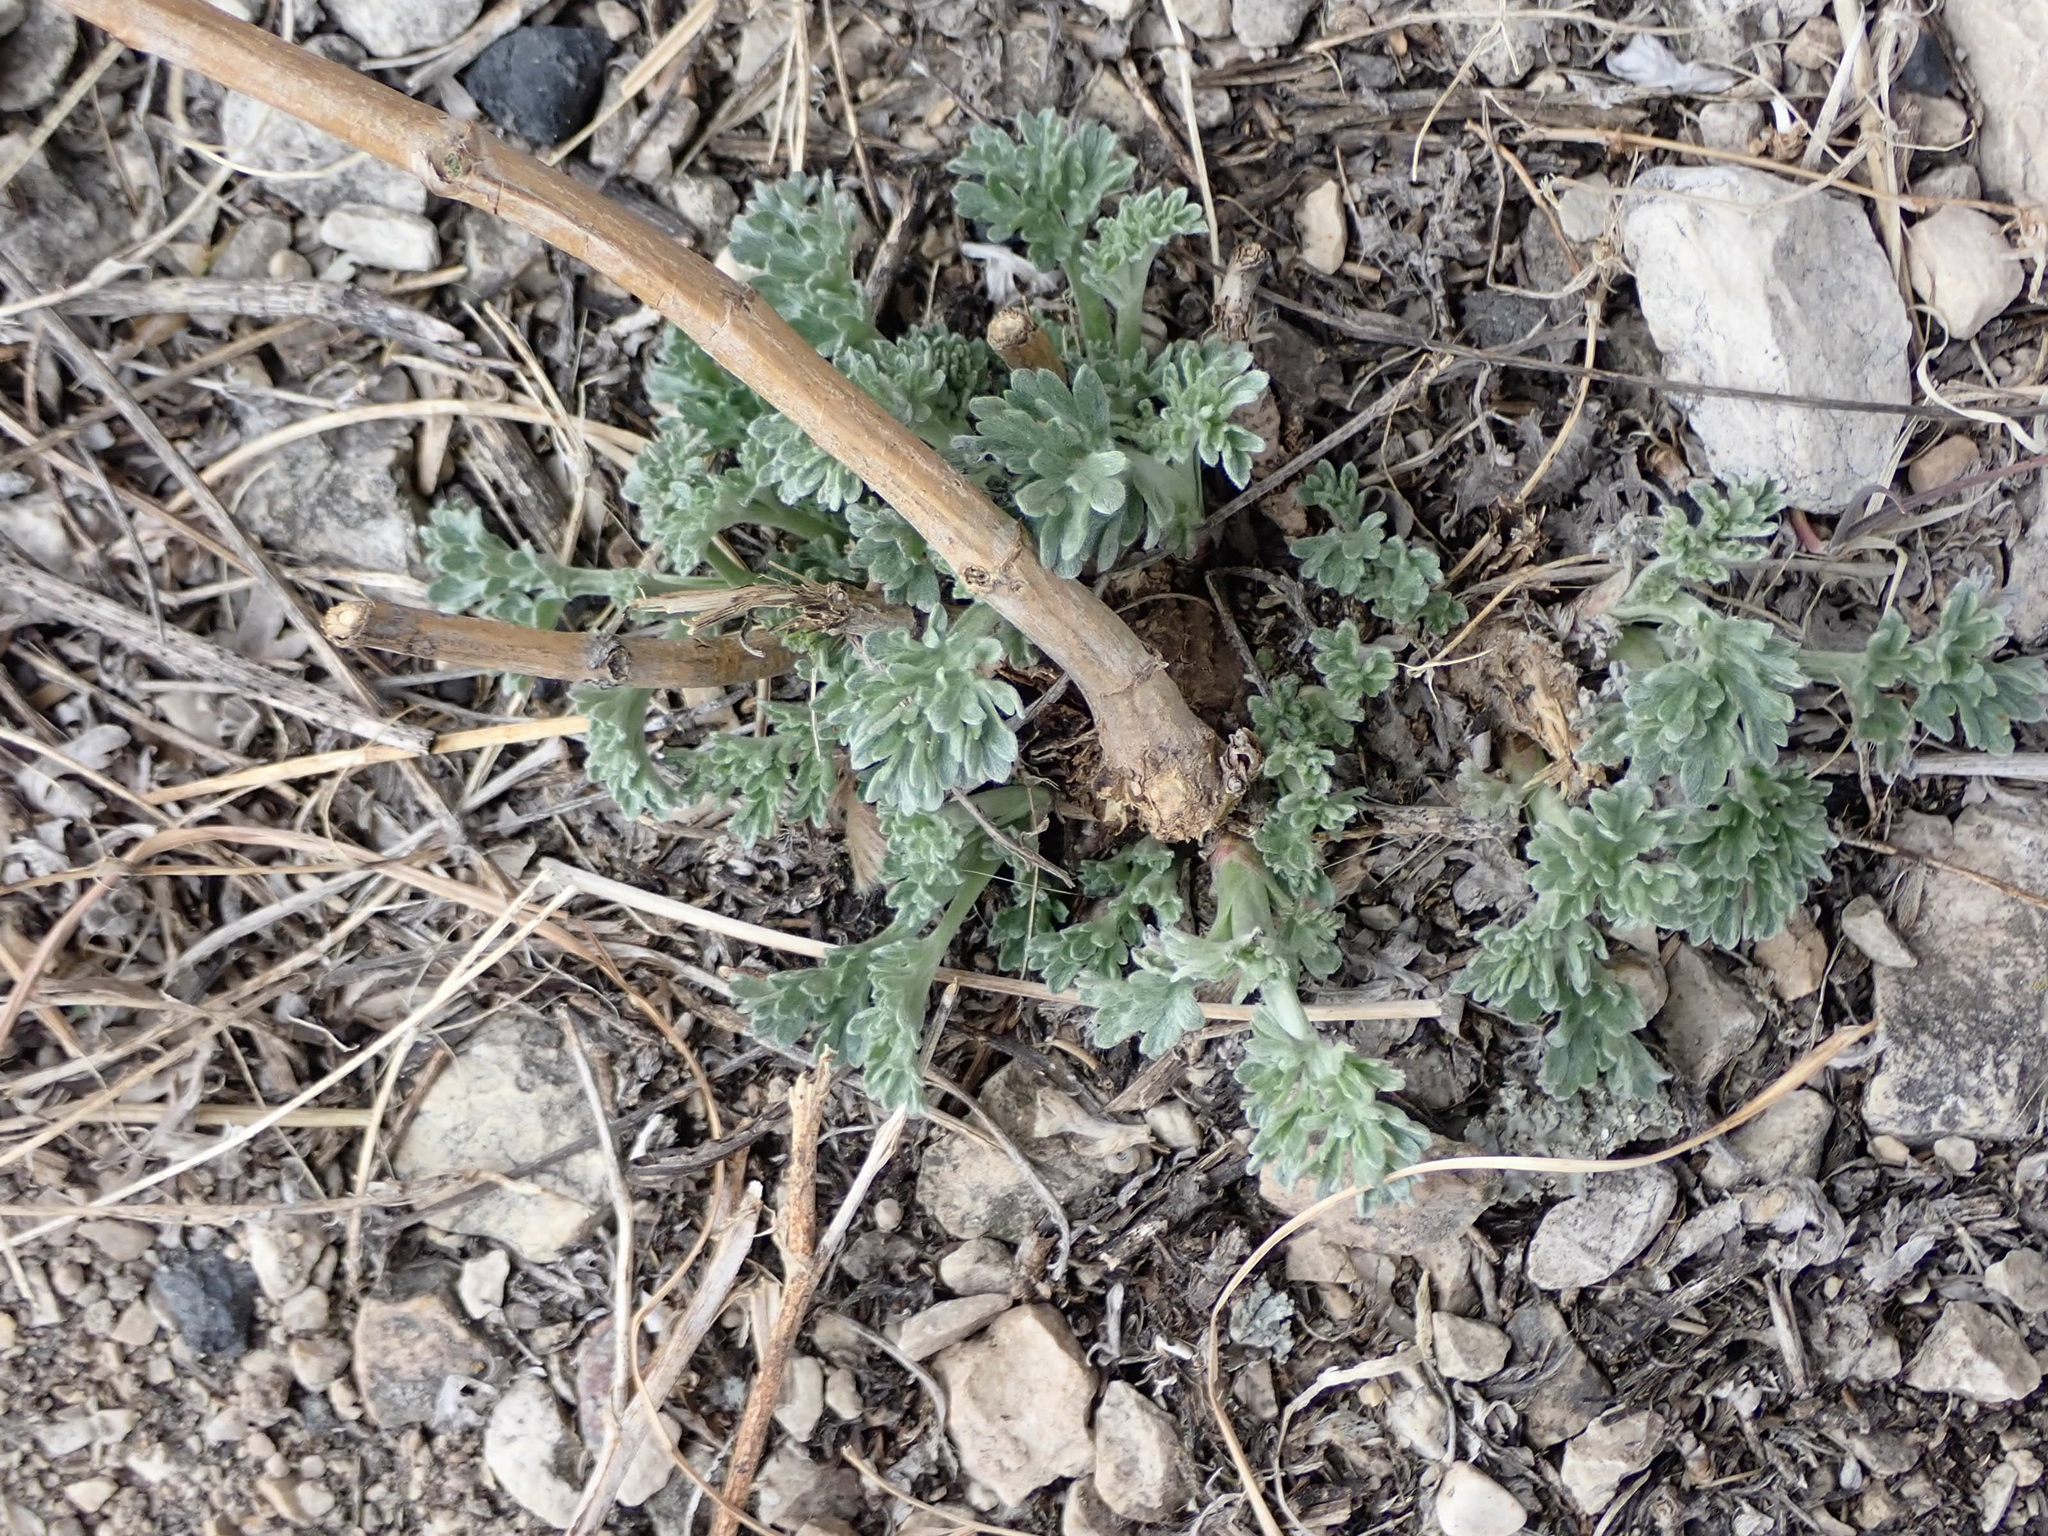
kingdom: Plantae
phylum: Tracheophyta
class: Magnoliopsida
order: Asterales
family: Asteraceae
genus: Artemisia
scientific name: Artemisia absinthium
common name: Wormwood
